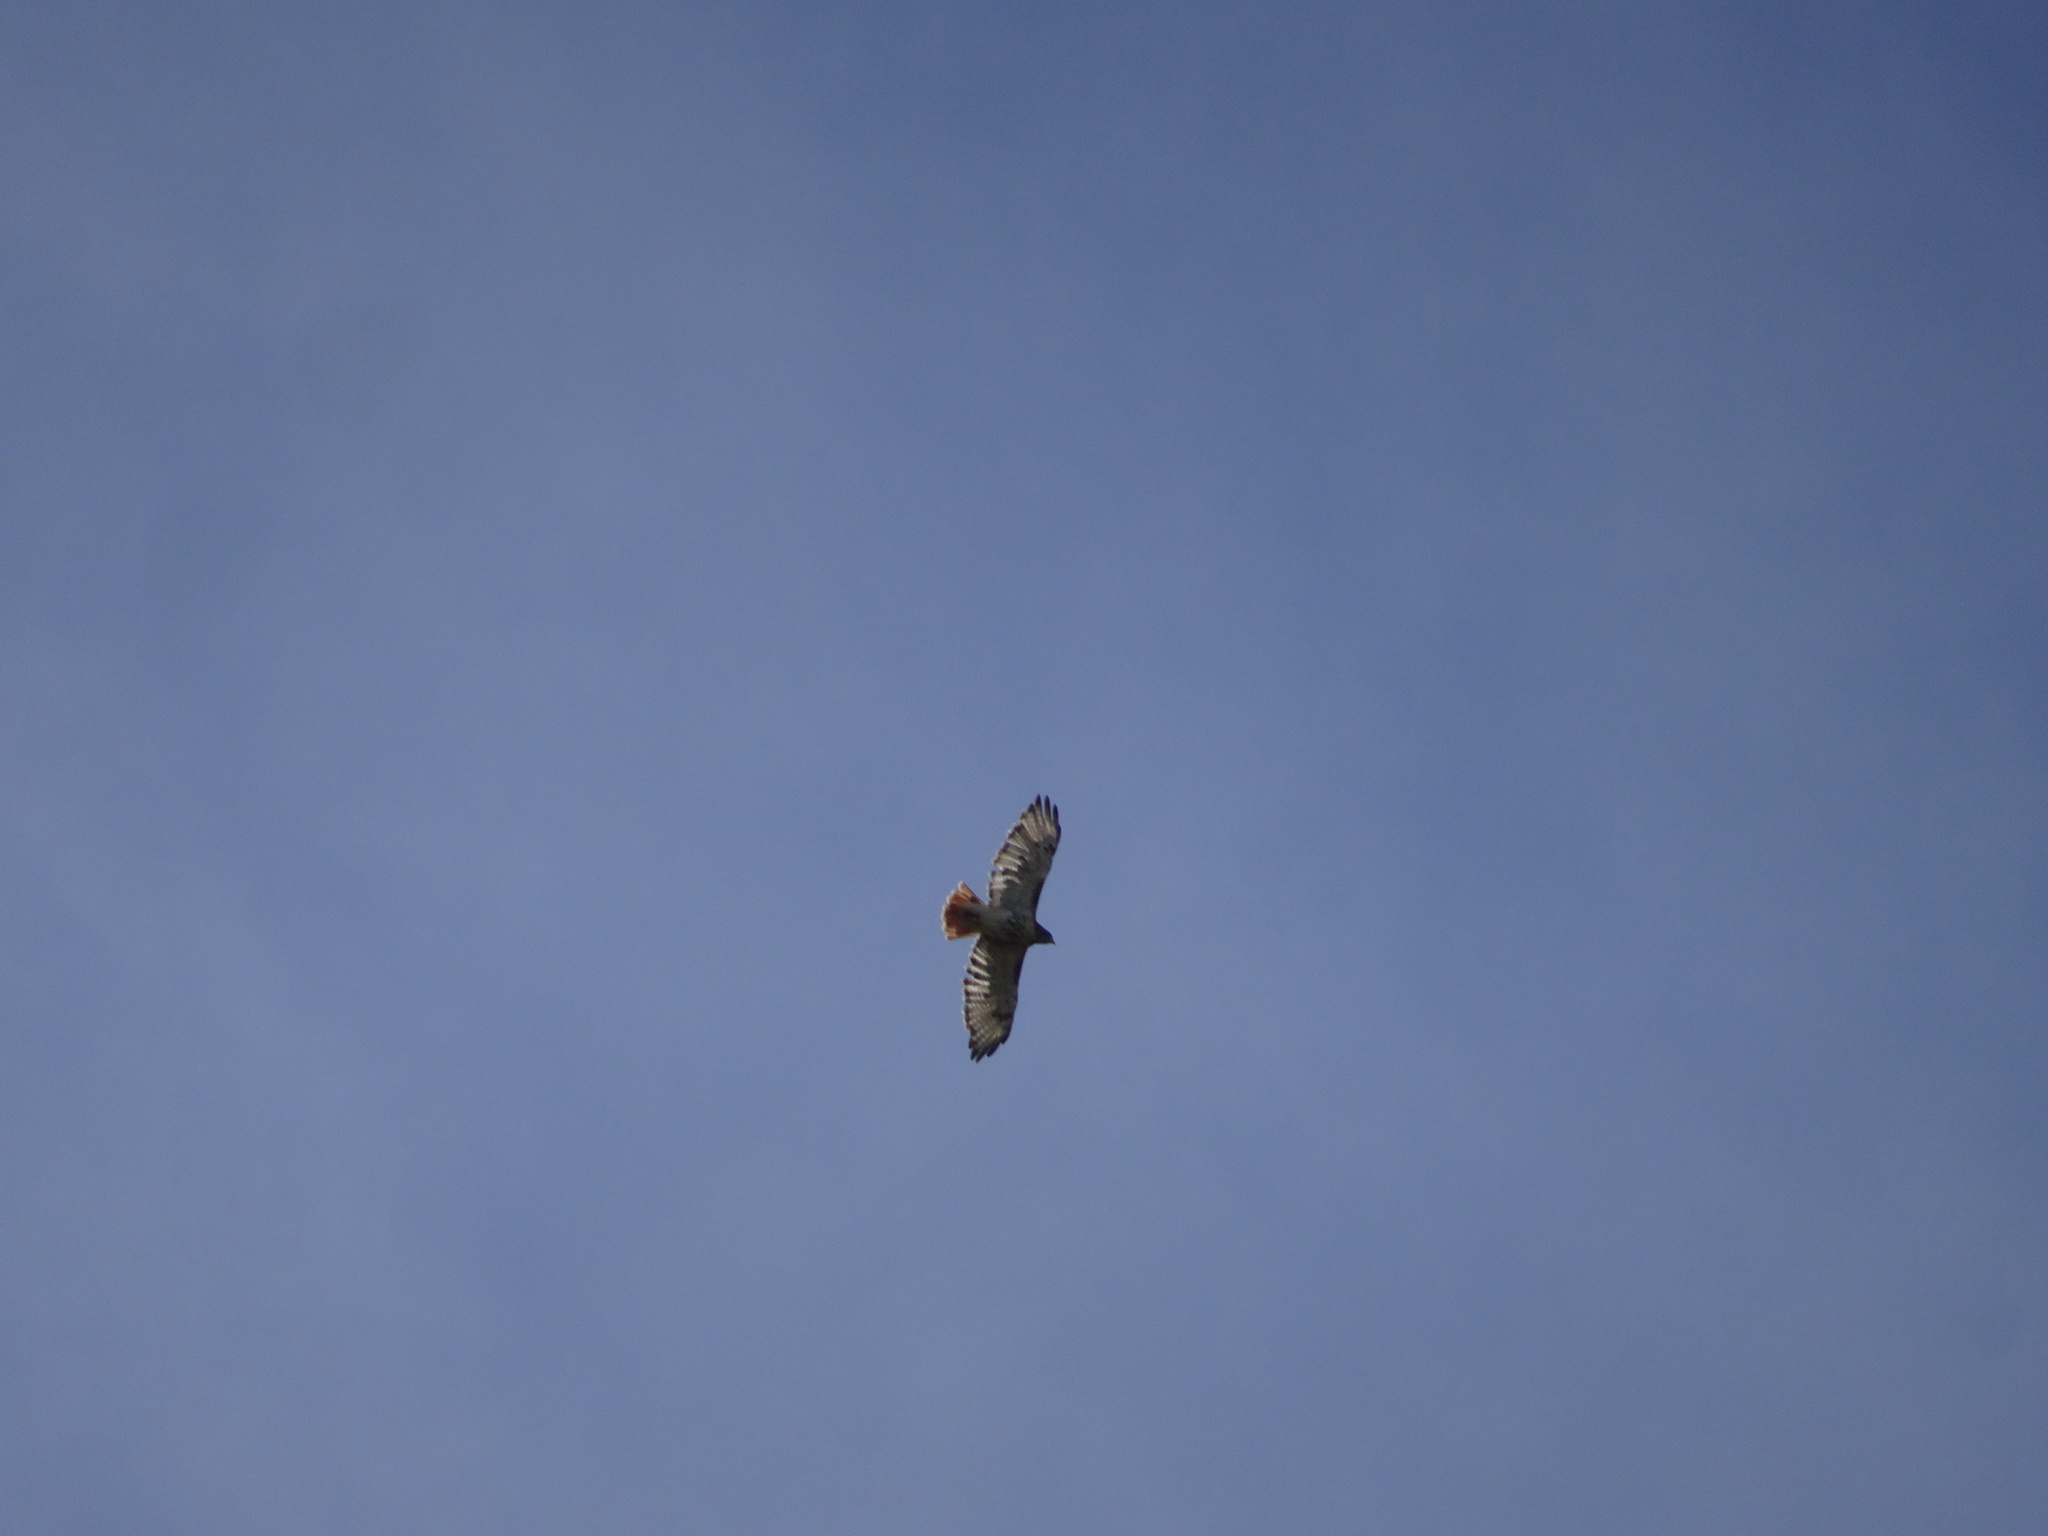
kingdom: Animalia
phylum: Chordata
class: Aves
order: Accipitriformes
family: Accipitridae
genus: Buteo
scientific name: Buteo jamaicensis
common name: Red-tailed hawk
